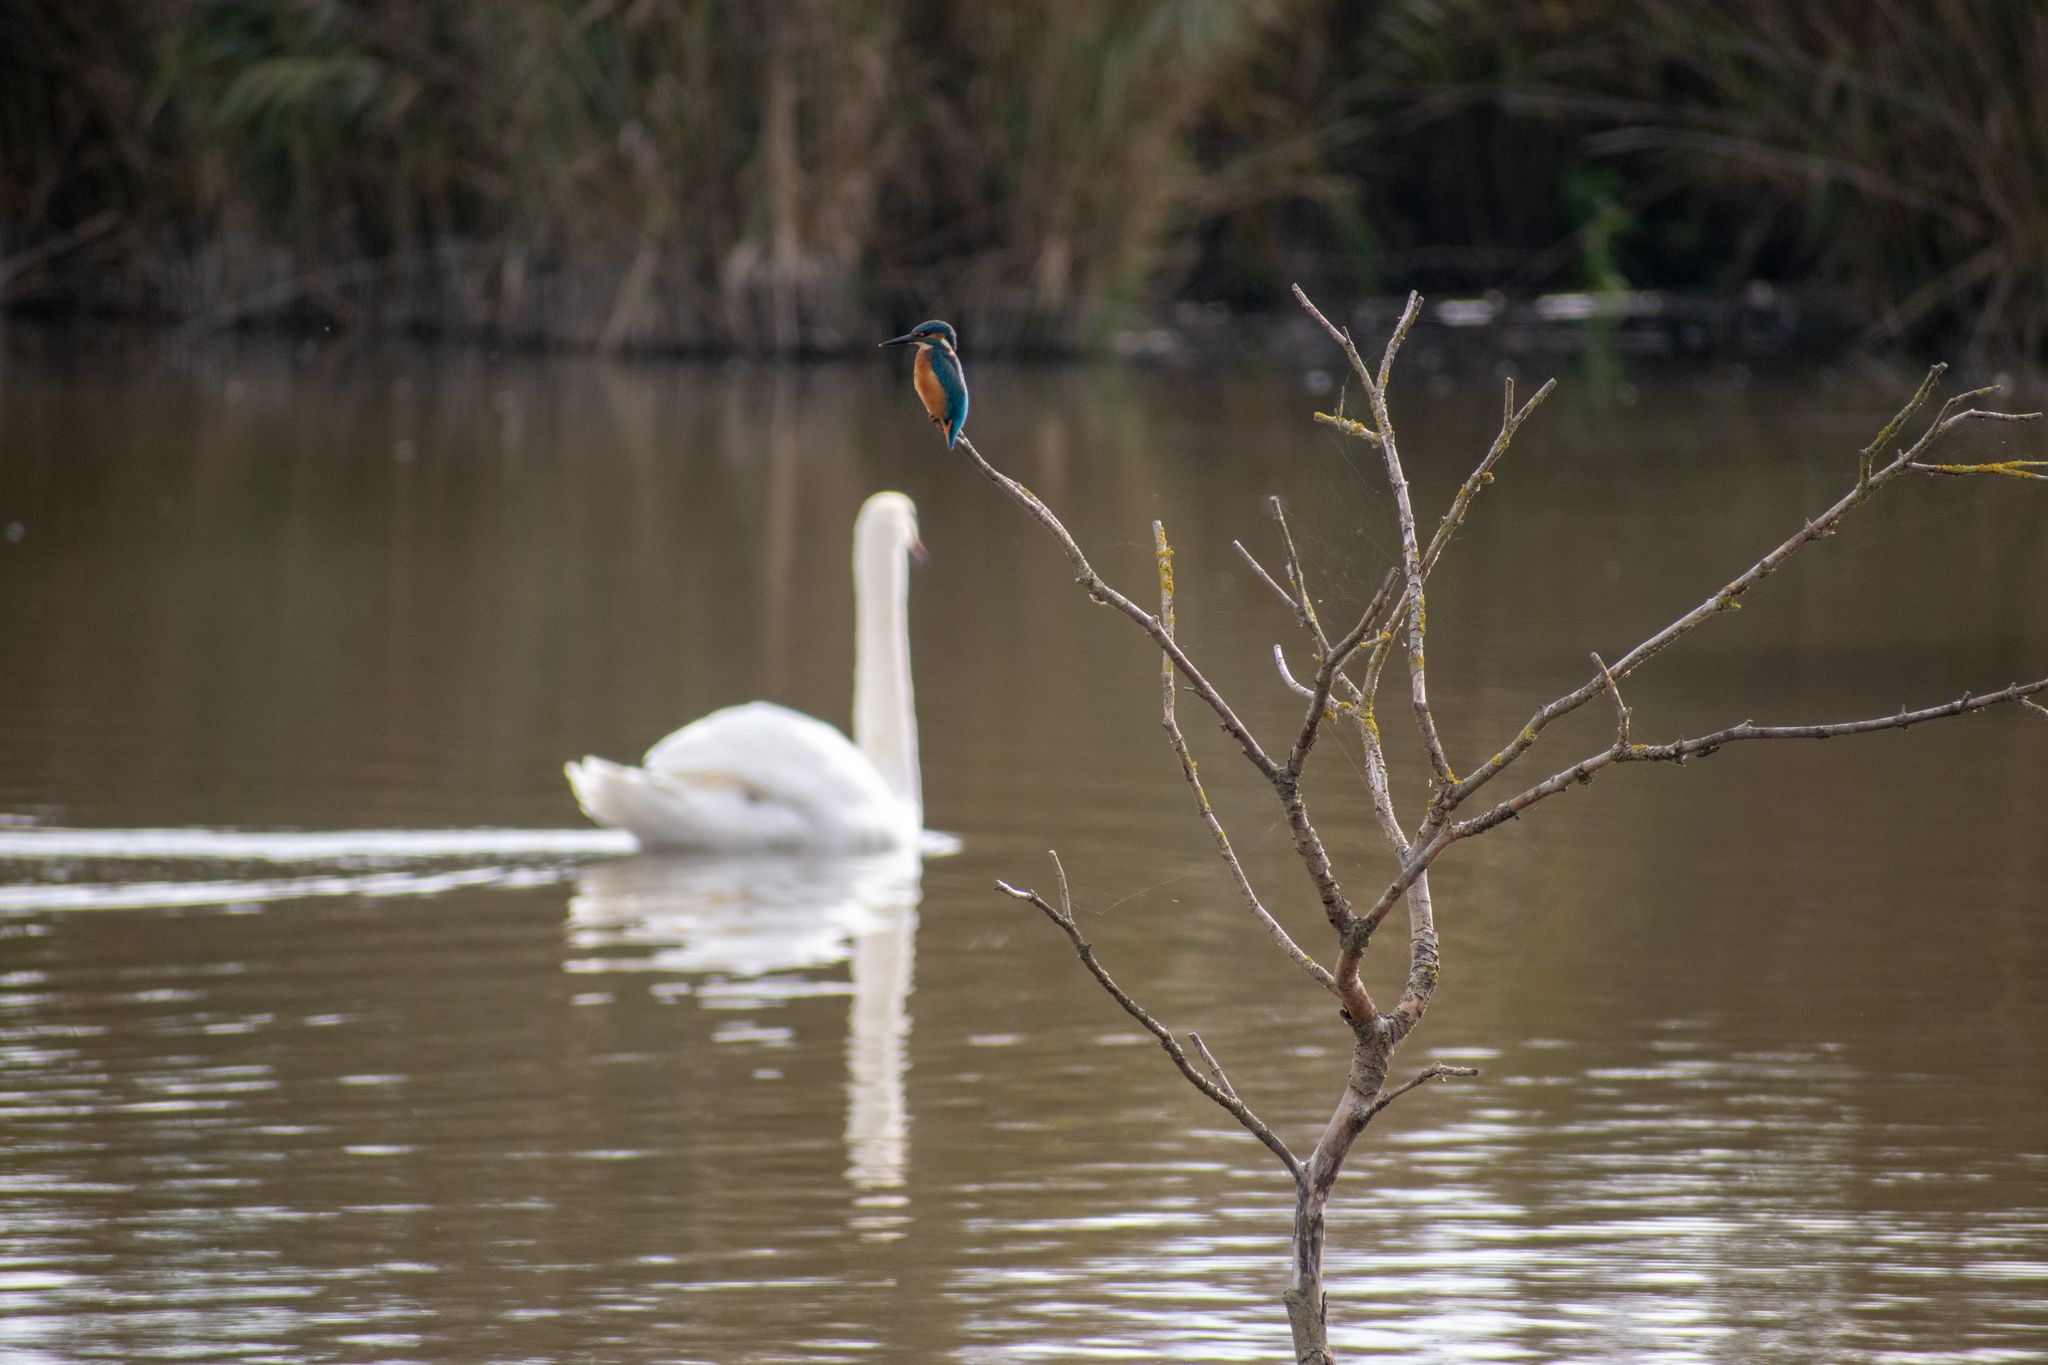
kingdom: Animalia
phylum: Chordata
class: Aves
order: Coraciiformes
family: Alcedinidae
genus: Alcedo
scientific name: Alcedo atthis
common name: Common kingfisher
